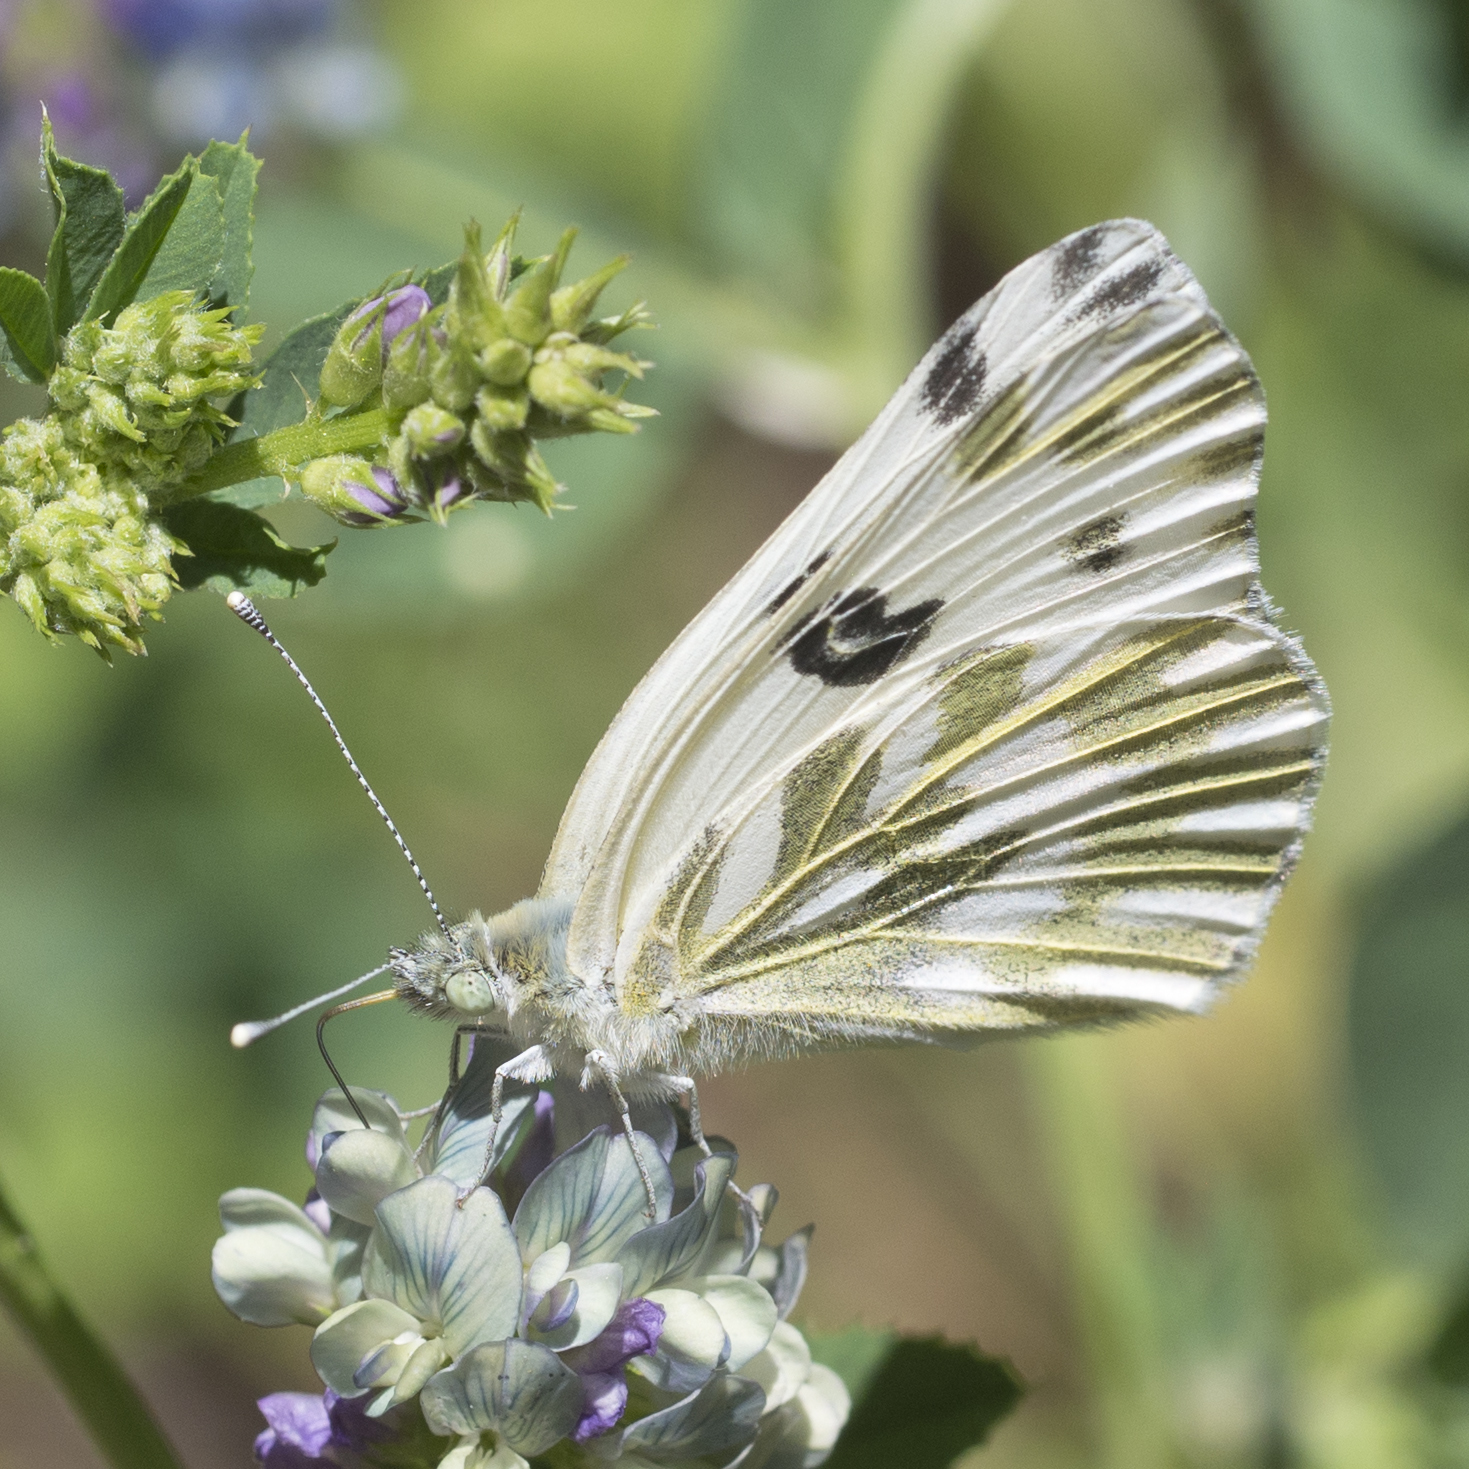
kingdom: Animalia
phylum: Arthropoda
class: Insecta
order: Lepidoptera
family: Pieridae
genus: Pontia
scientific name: Pontia beckerii
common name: Becker's white
